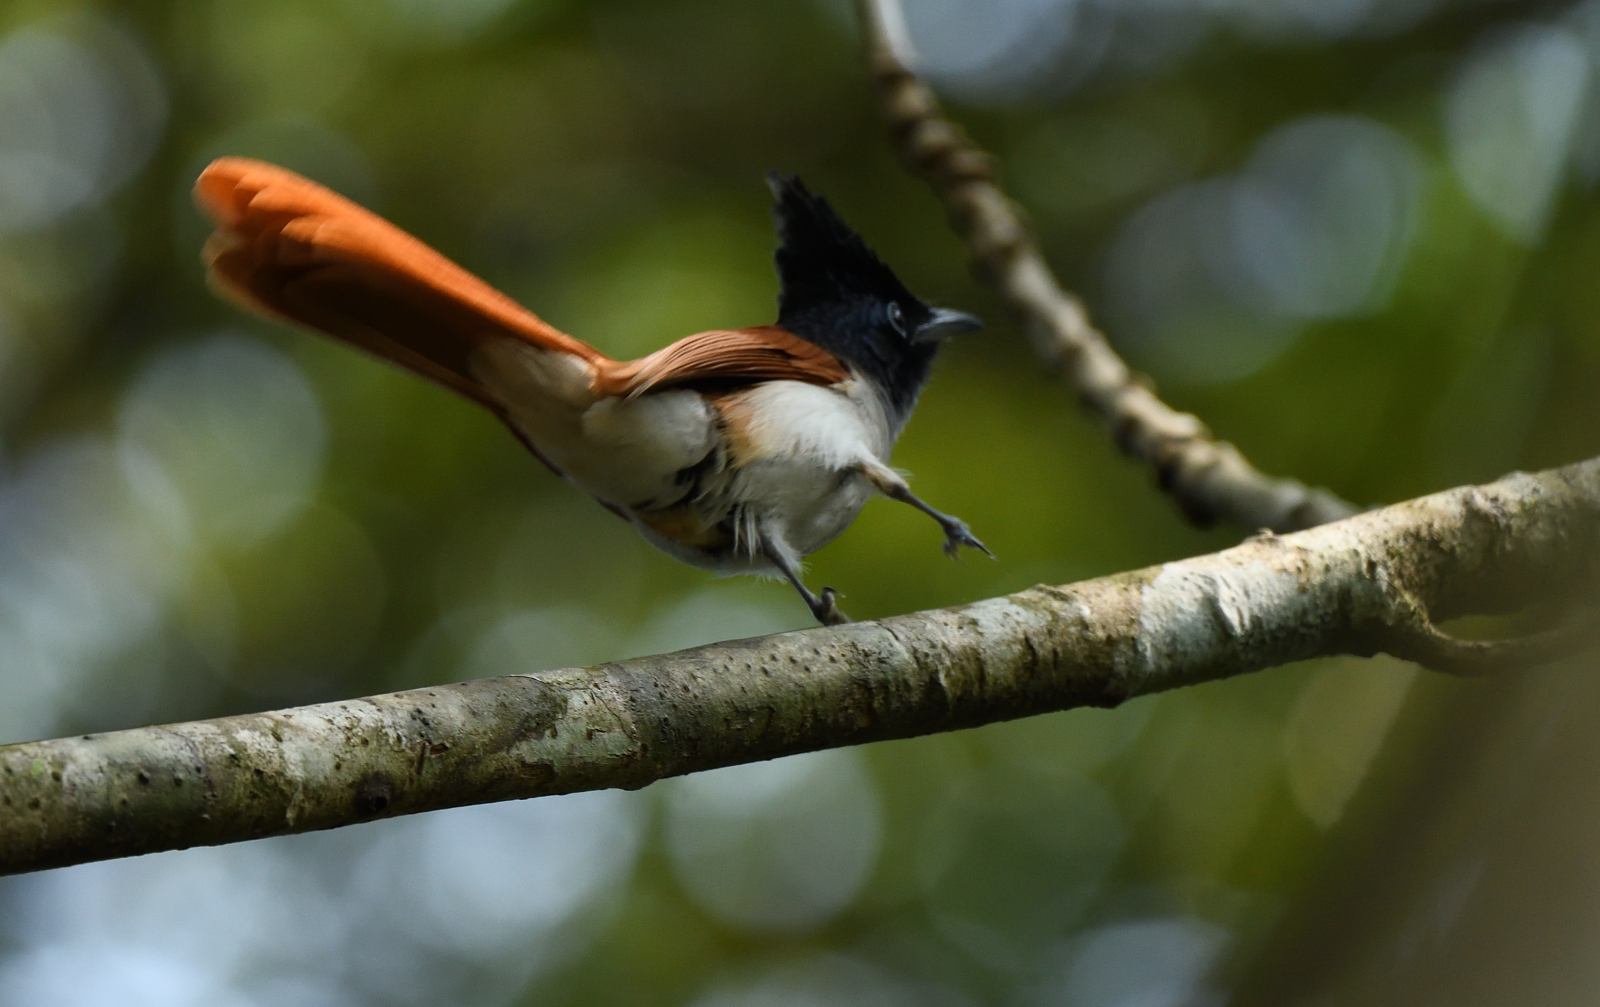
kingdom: Animalia
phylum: Chordata
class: Aves
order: Passeriformes
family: Monarchidae
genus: Terpsiphone
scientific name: Terpsiphone paradisi
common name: Indian paradise flycatcher
